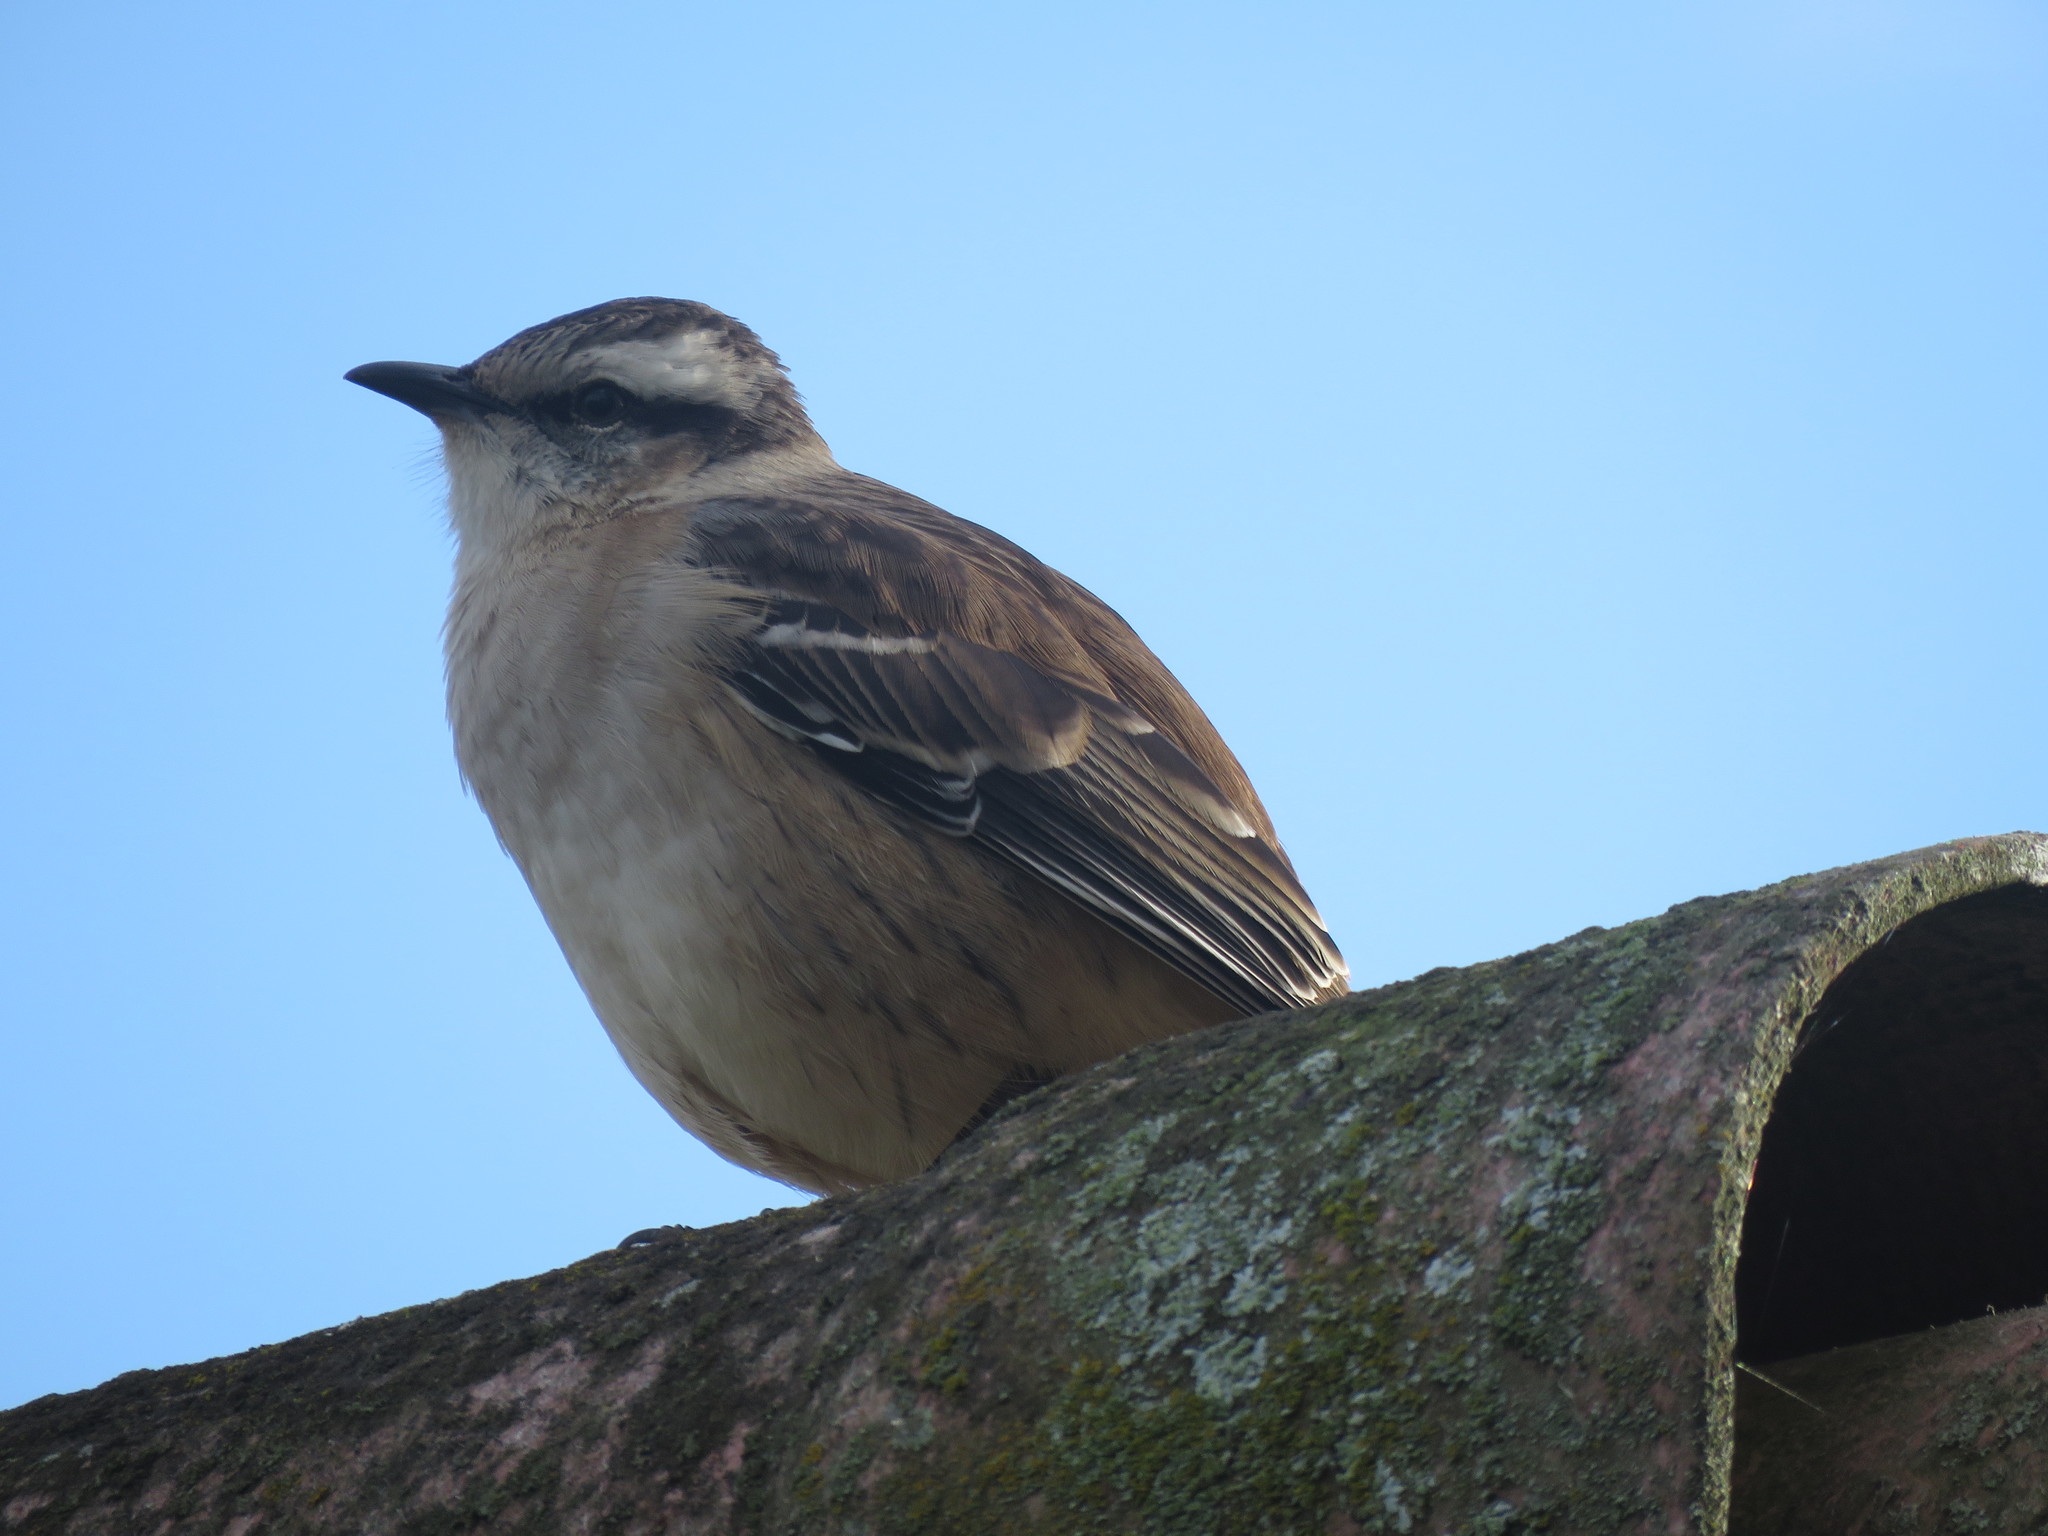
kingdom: Animalia
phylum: Chordata
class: Aves
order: Passeriformes
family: Mimidae
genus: Mimus
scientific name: Mimus saturninus
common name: Chalk-browed mockingbird
